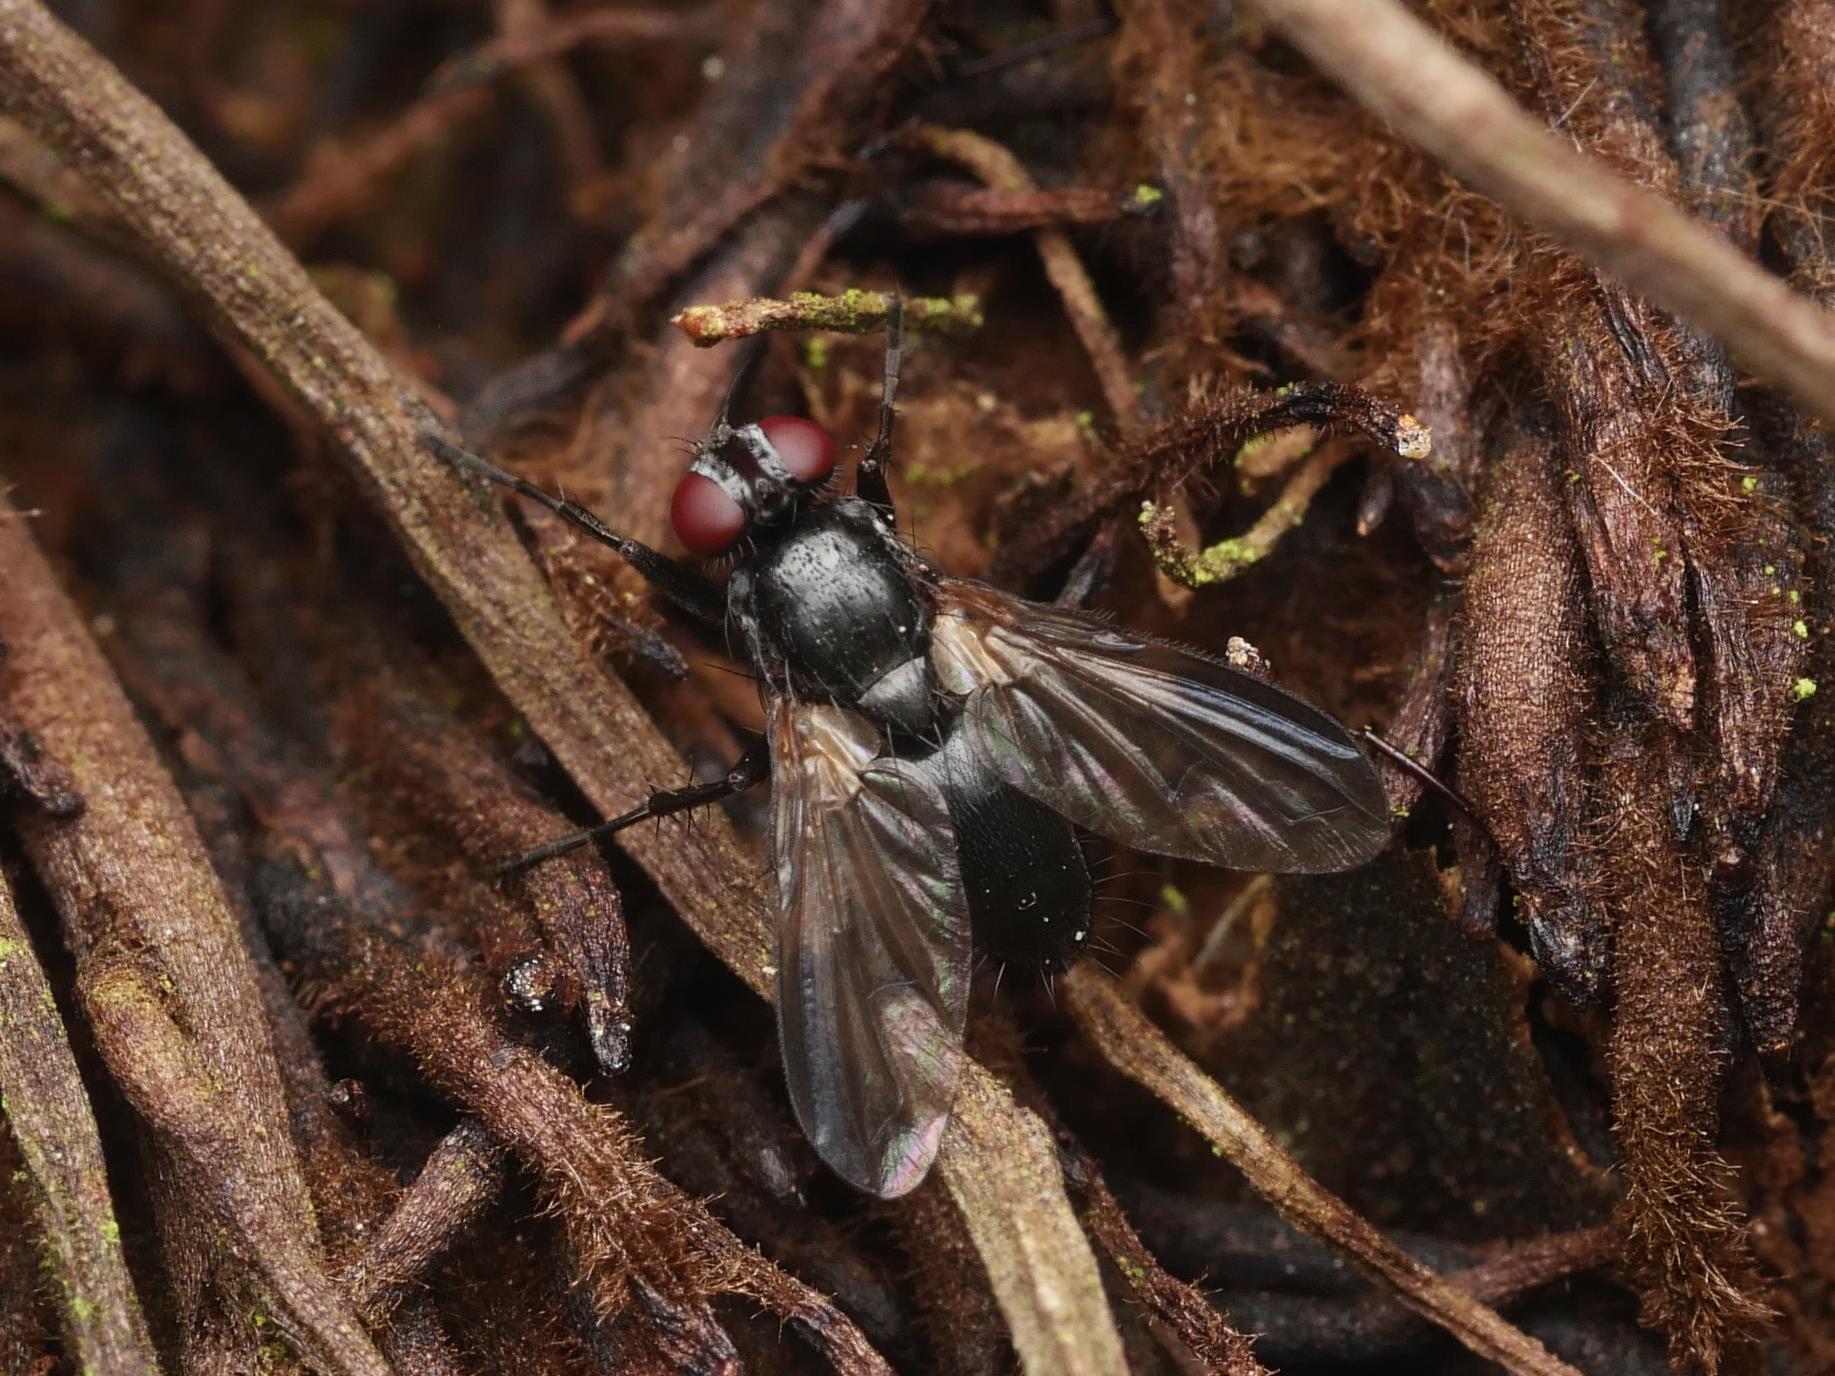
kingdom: Animalia
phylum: Arthropoda
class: Insecta
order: Diptera
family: Calliphoridae
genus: Rhinophora
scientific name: Rhinophora lepida
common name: Pouting woodlouse-fly
